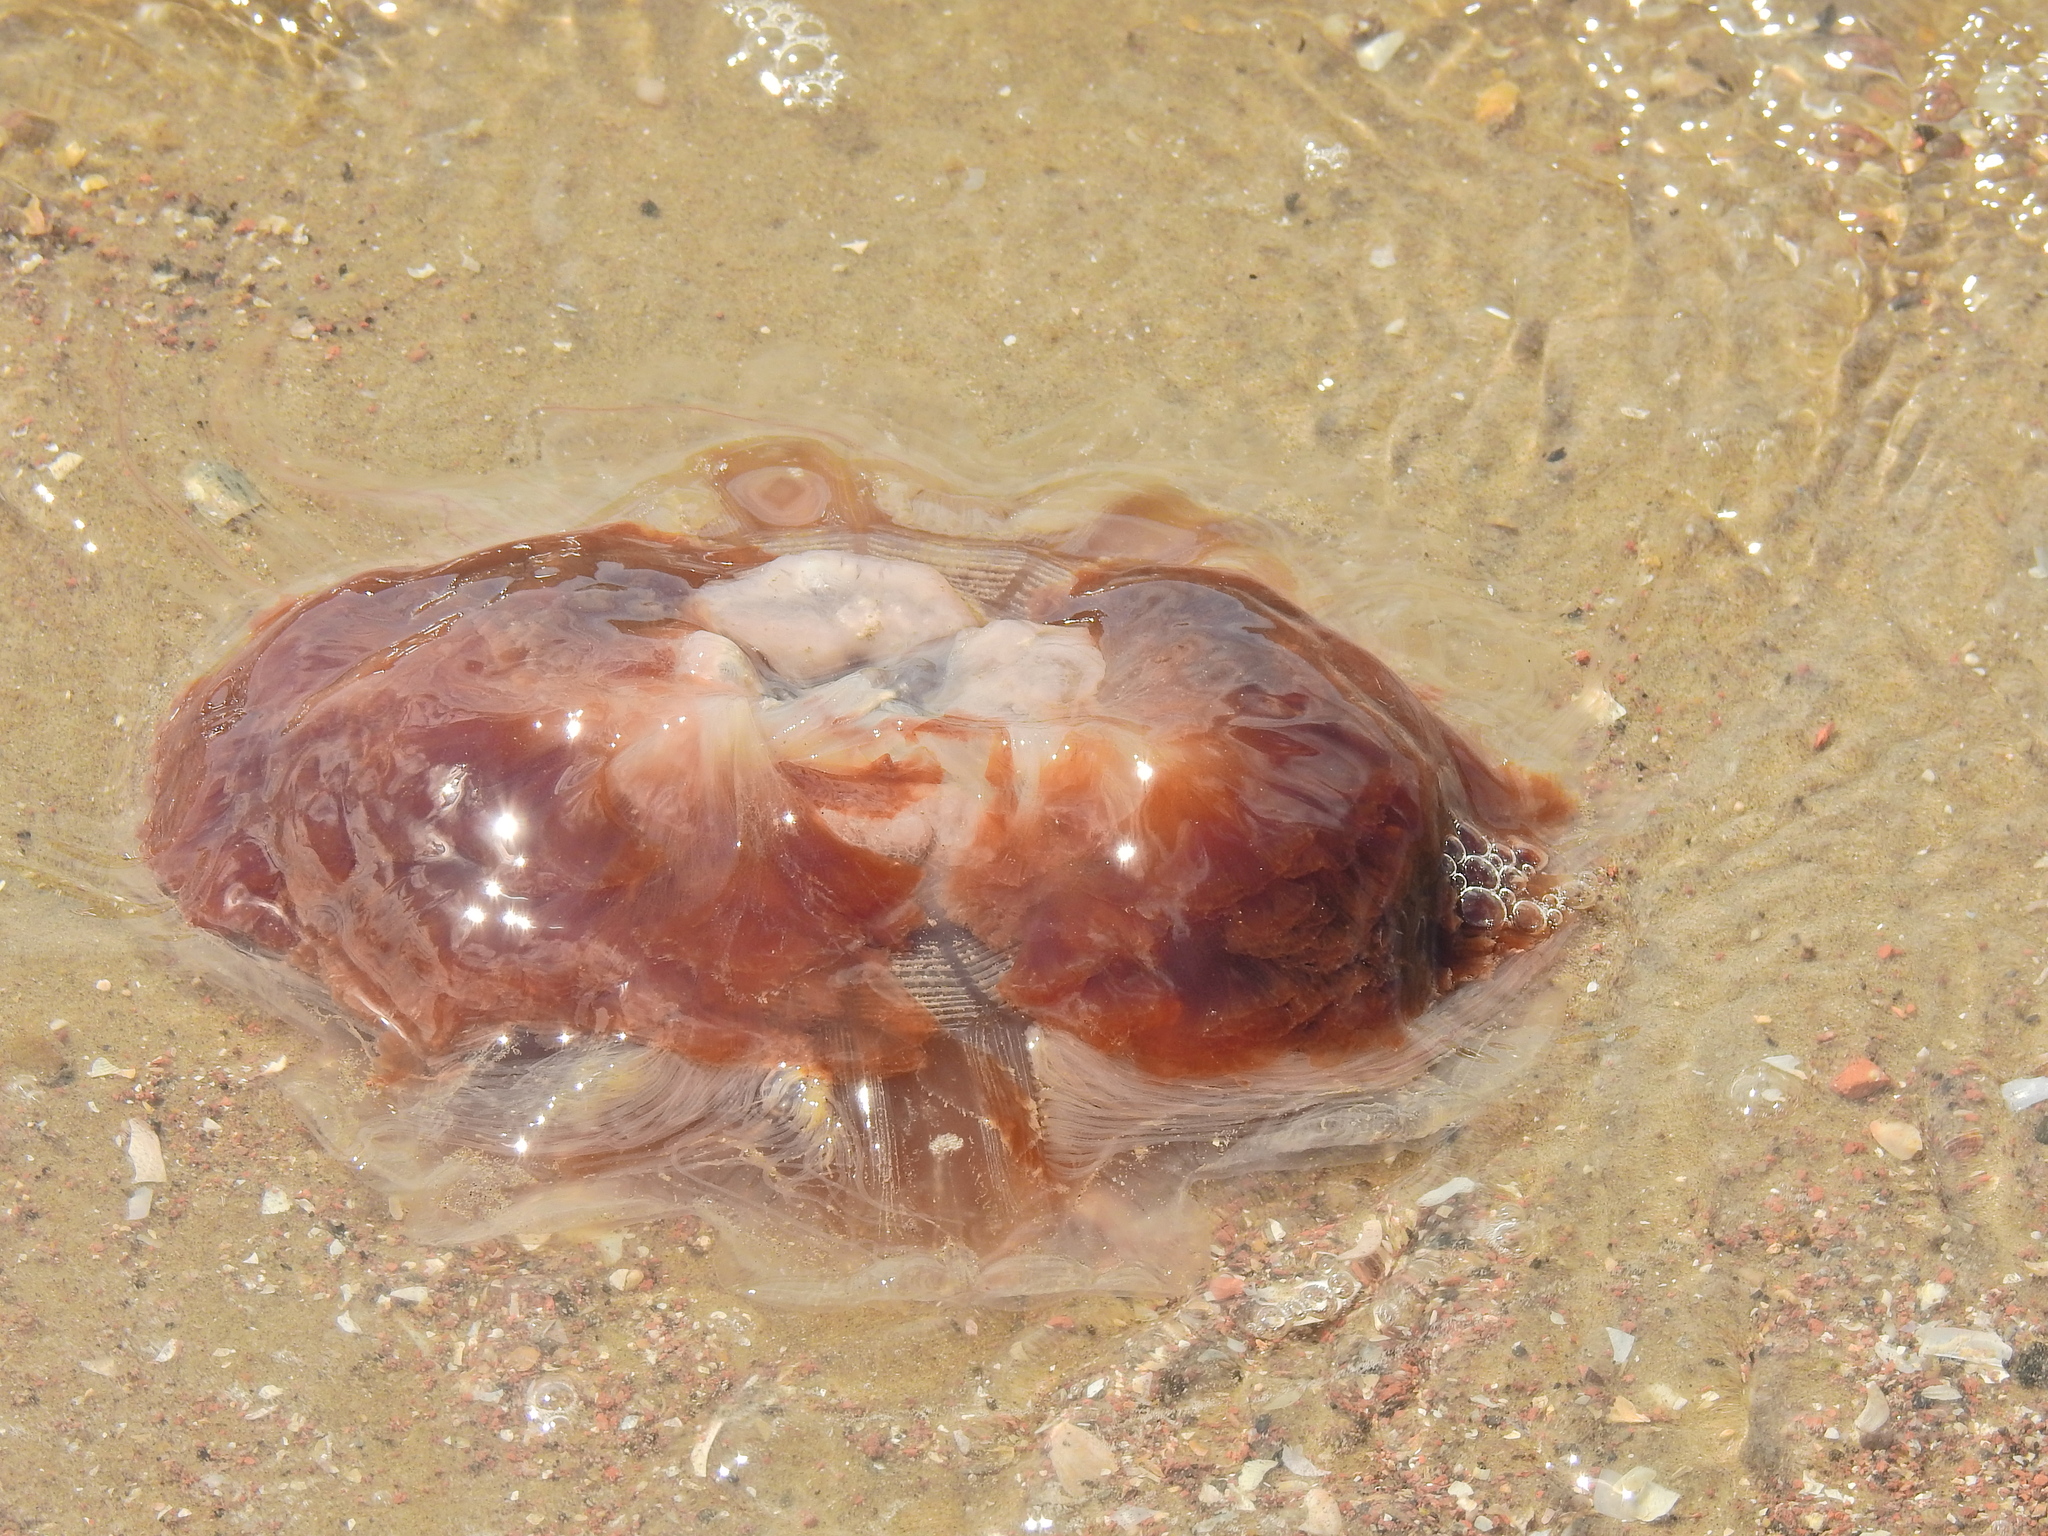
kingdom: Animalia
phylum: Cnidaria
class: Scyphozoa
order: Semaeostomeae
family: Cyaneidae
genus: Cyanea
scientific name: Cyanea capillata
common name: Lion's mane jellyfish
